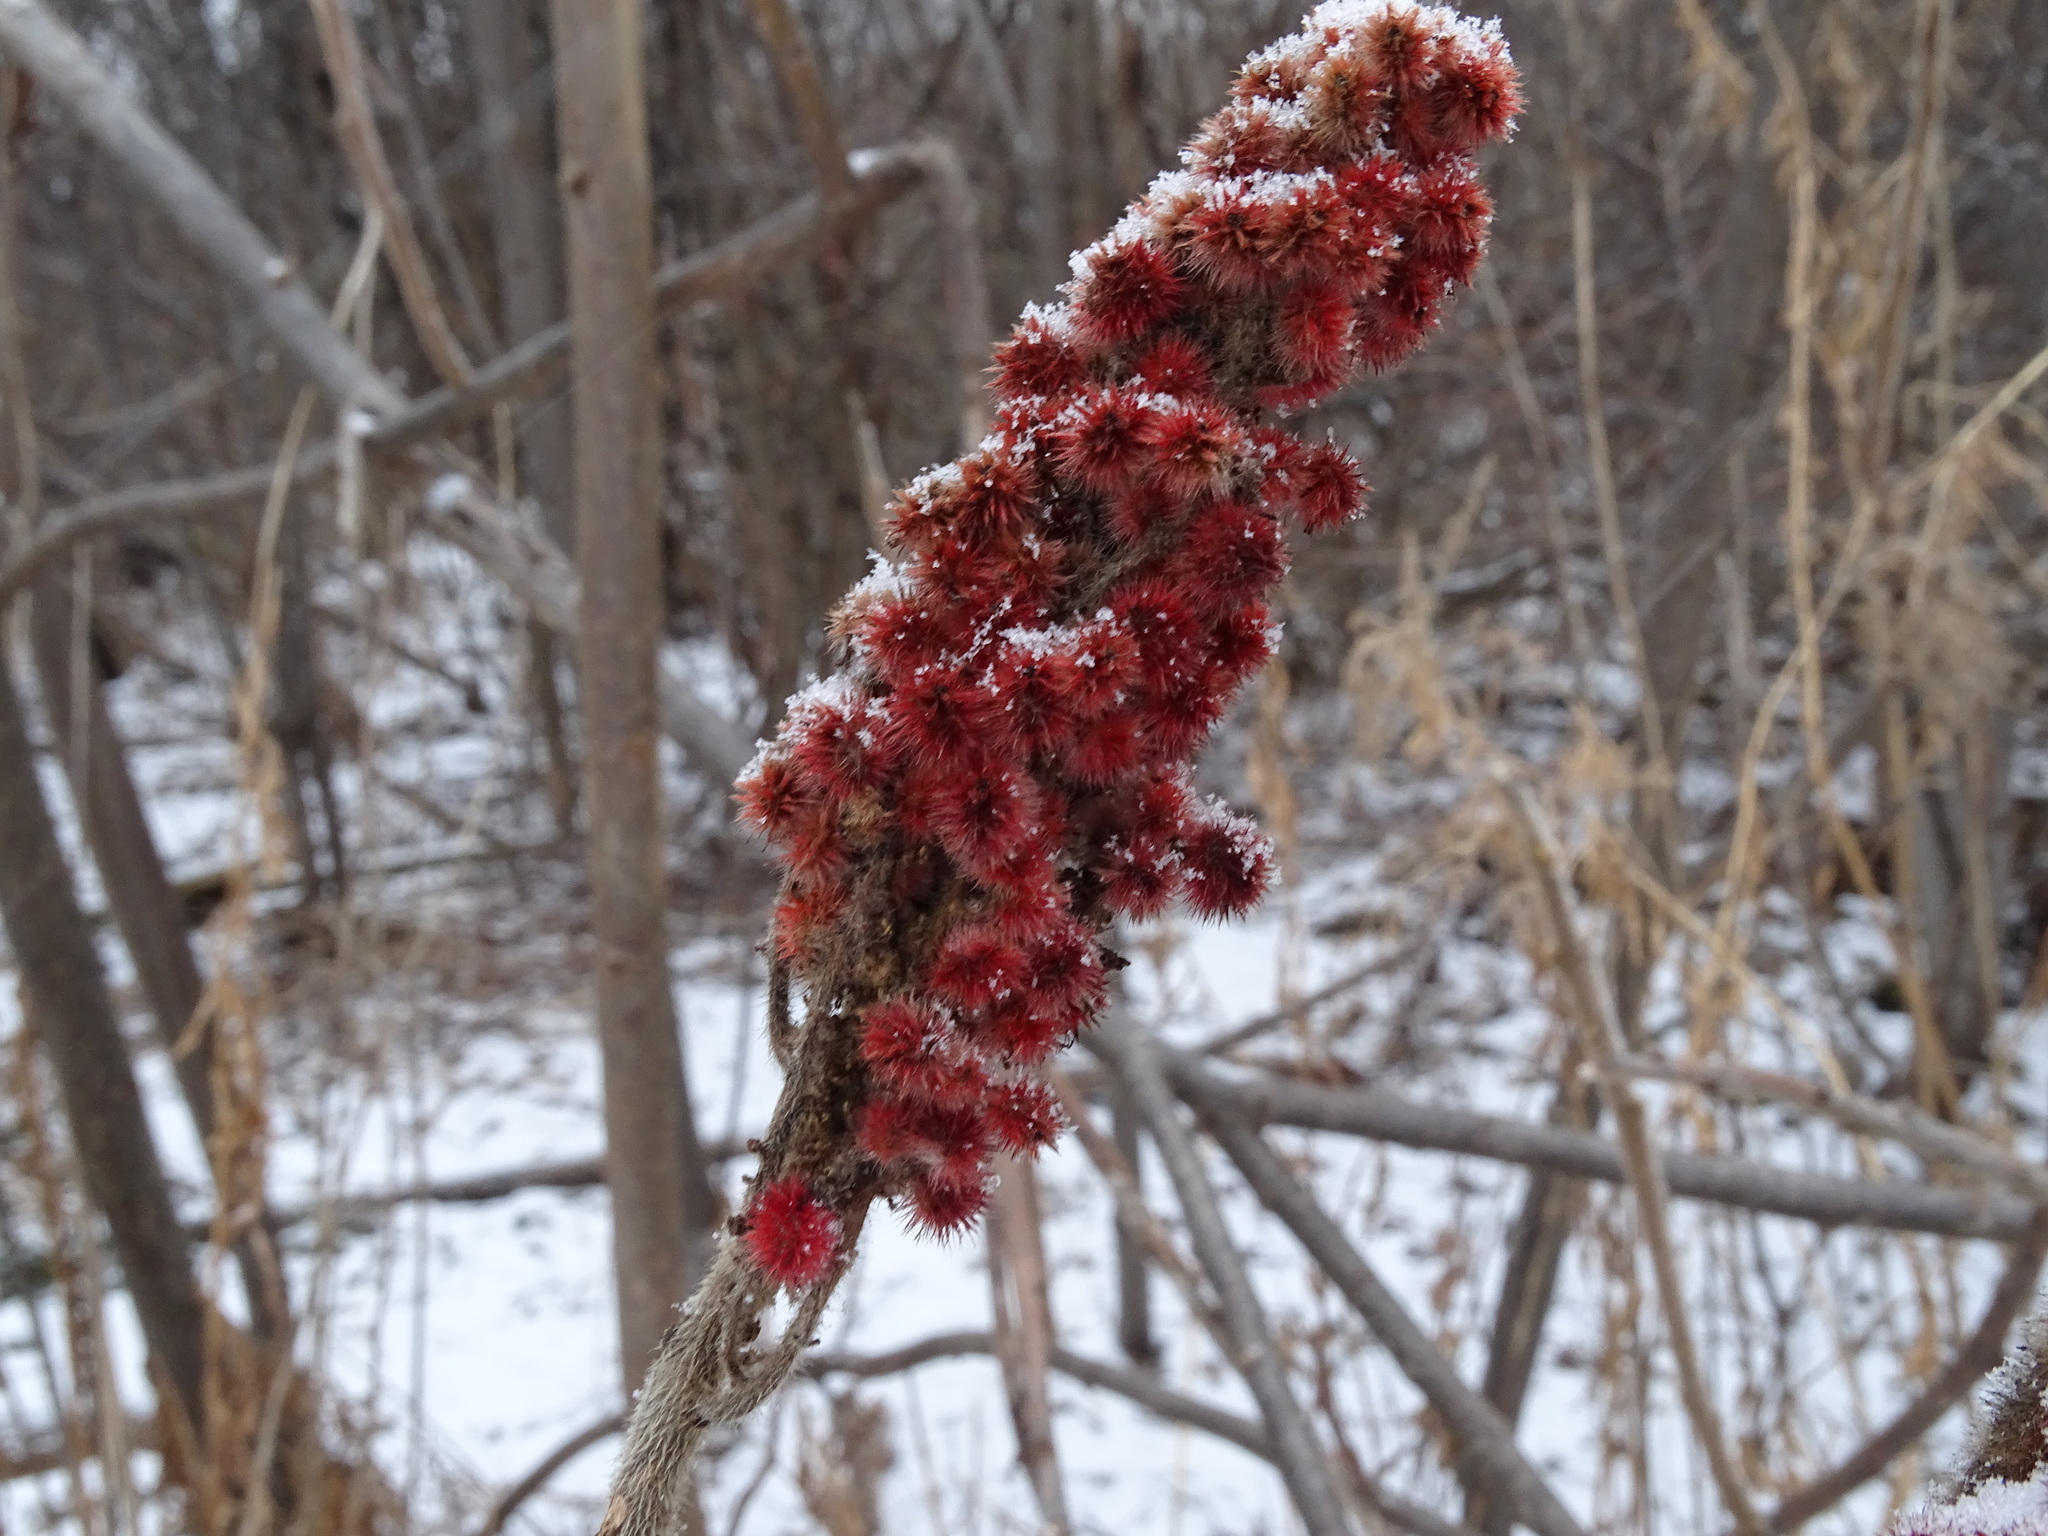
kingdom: Plantae
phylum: Tracheophyta
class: Magnoliopsida
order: Sapindales
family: Anacardiaceae
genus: Rhus
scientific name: Rhus typhina
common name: Staghorn sumac
